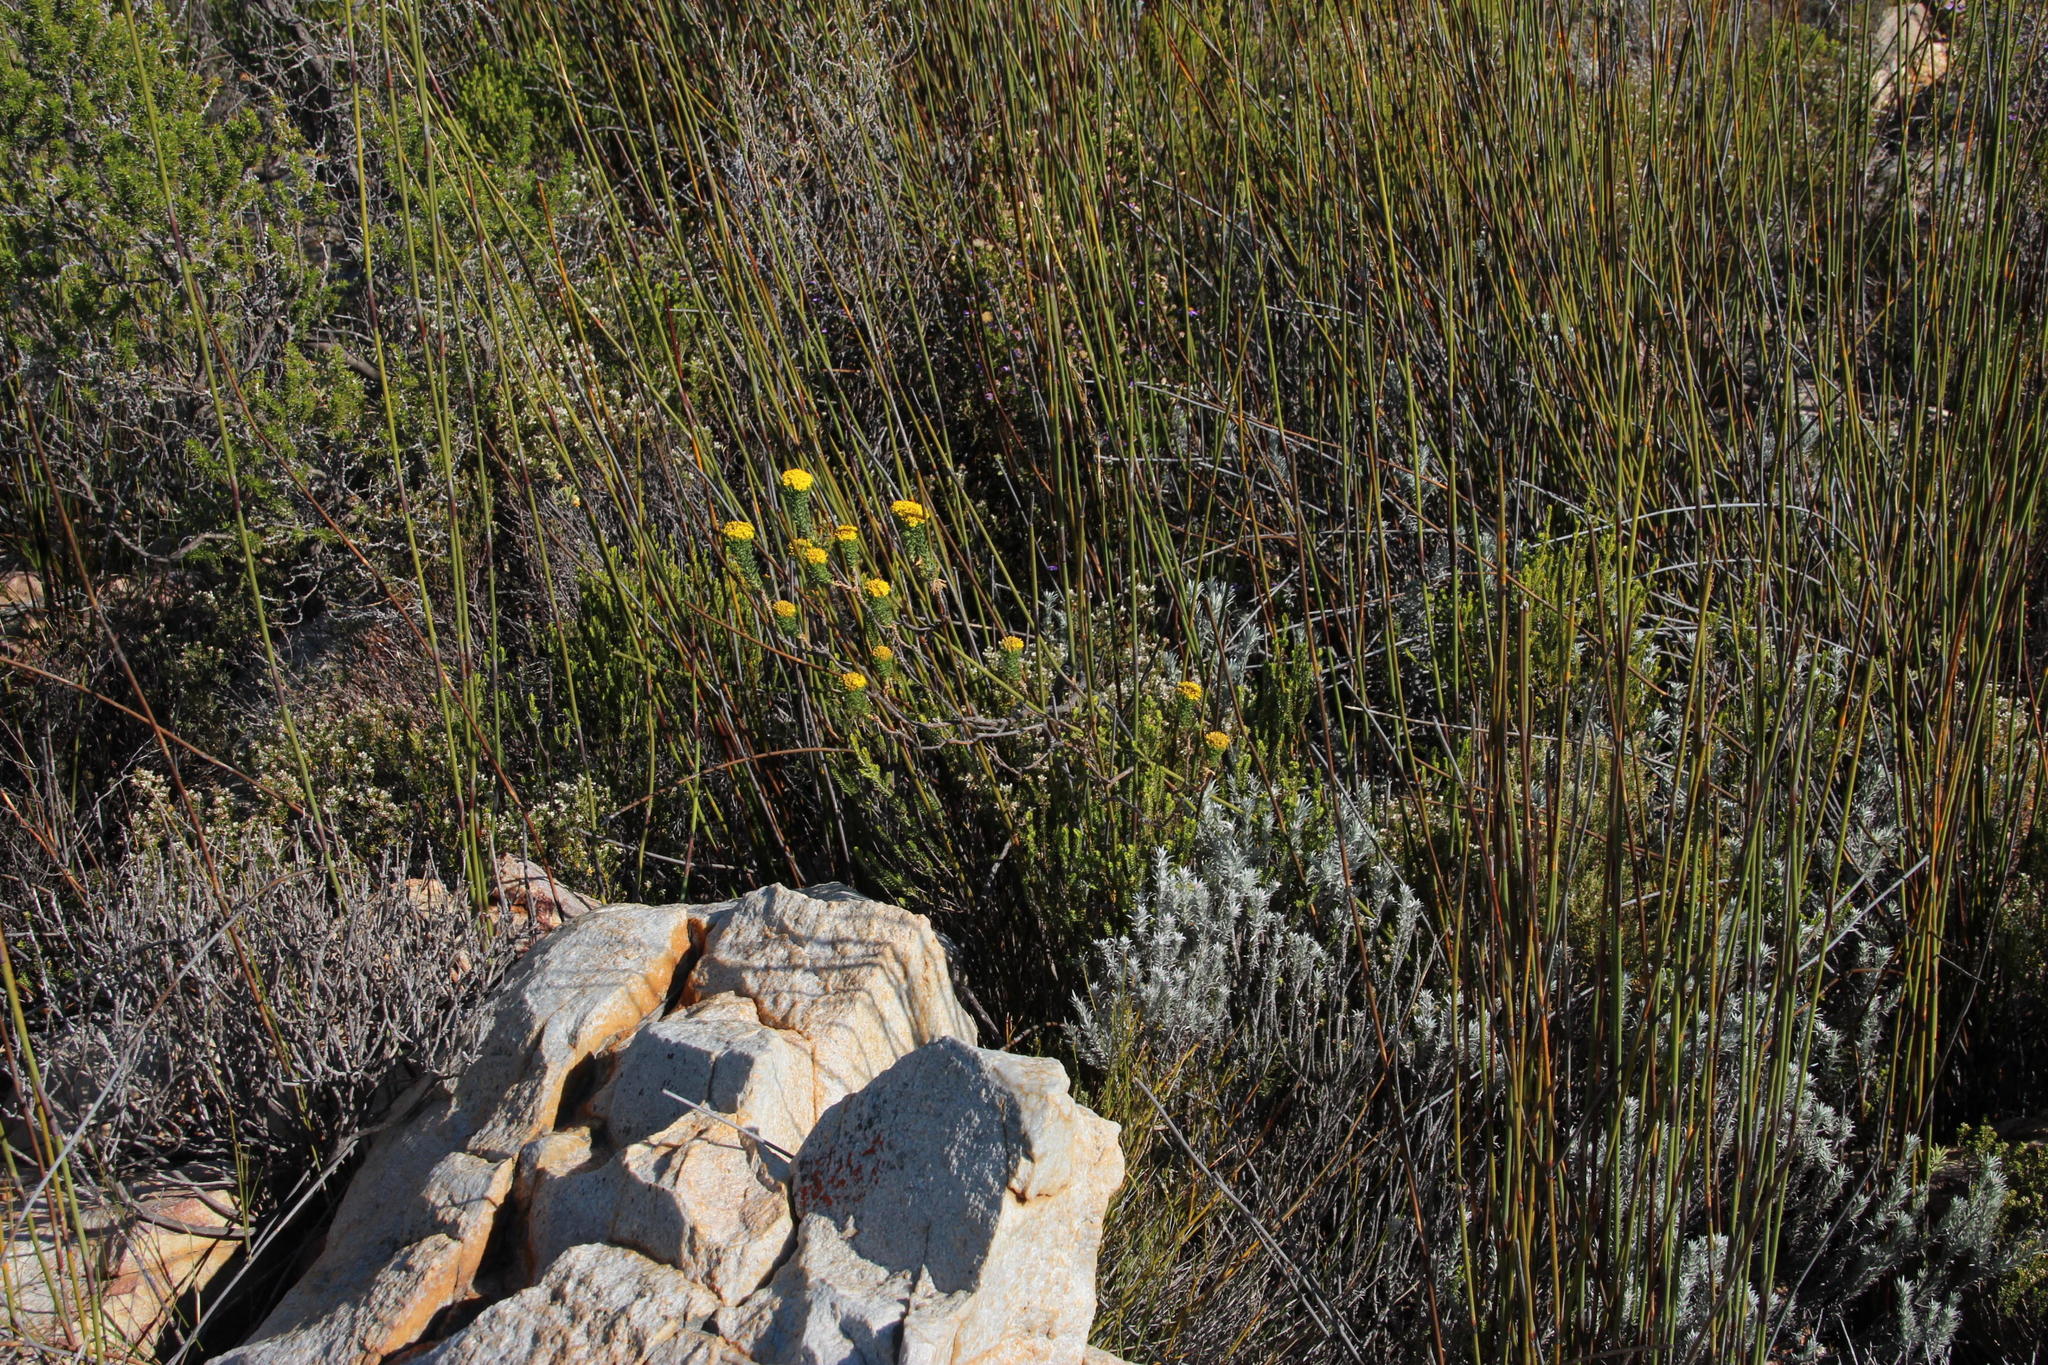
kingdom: Plantae
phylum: Tracheophyta
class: Magnoliopsida
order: Asterales
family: Asteraceae
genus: Hymenolepis
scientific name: Hymenolepis incisa
